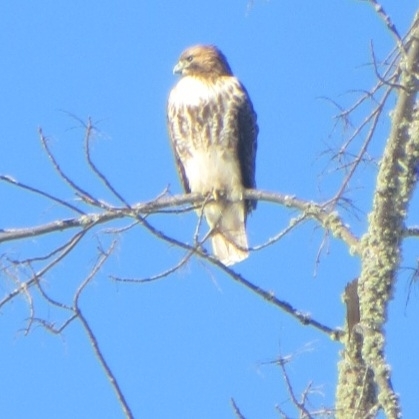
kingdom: Animalia
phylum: Chordata
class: Aves
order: Accipitriformes
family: Accipitridae
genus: Buteo
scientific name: Buteo jamaicensis
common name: Red-tailed hawk
